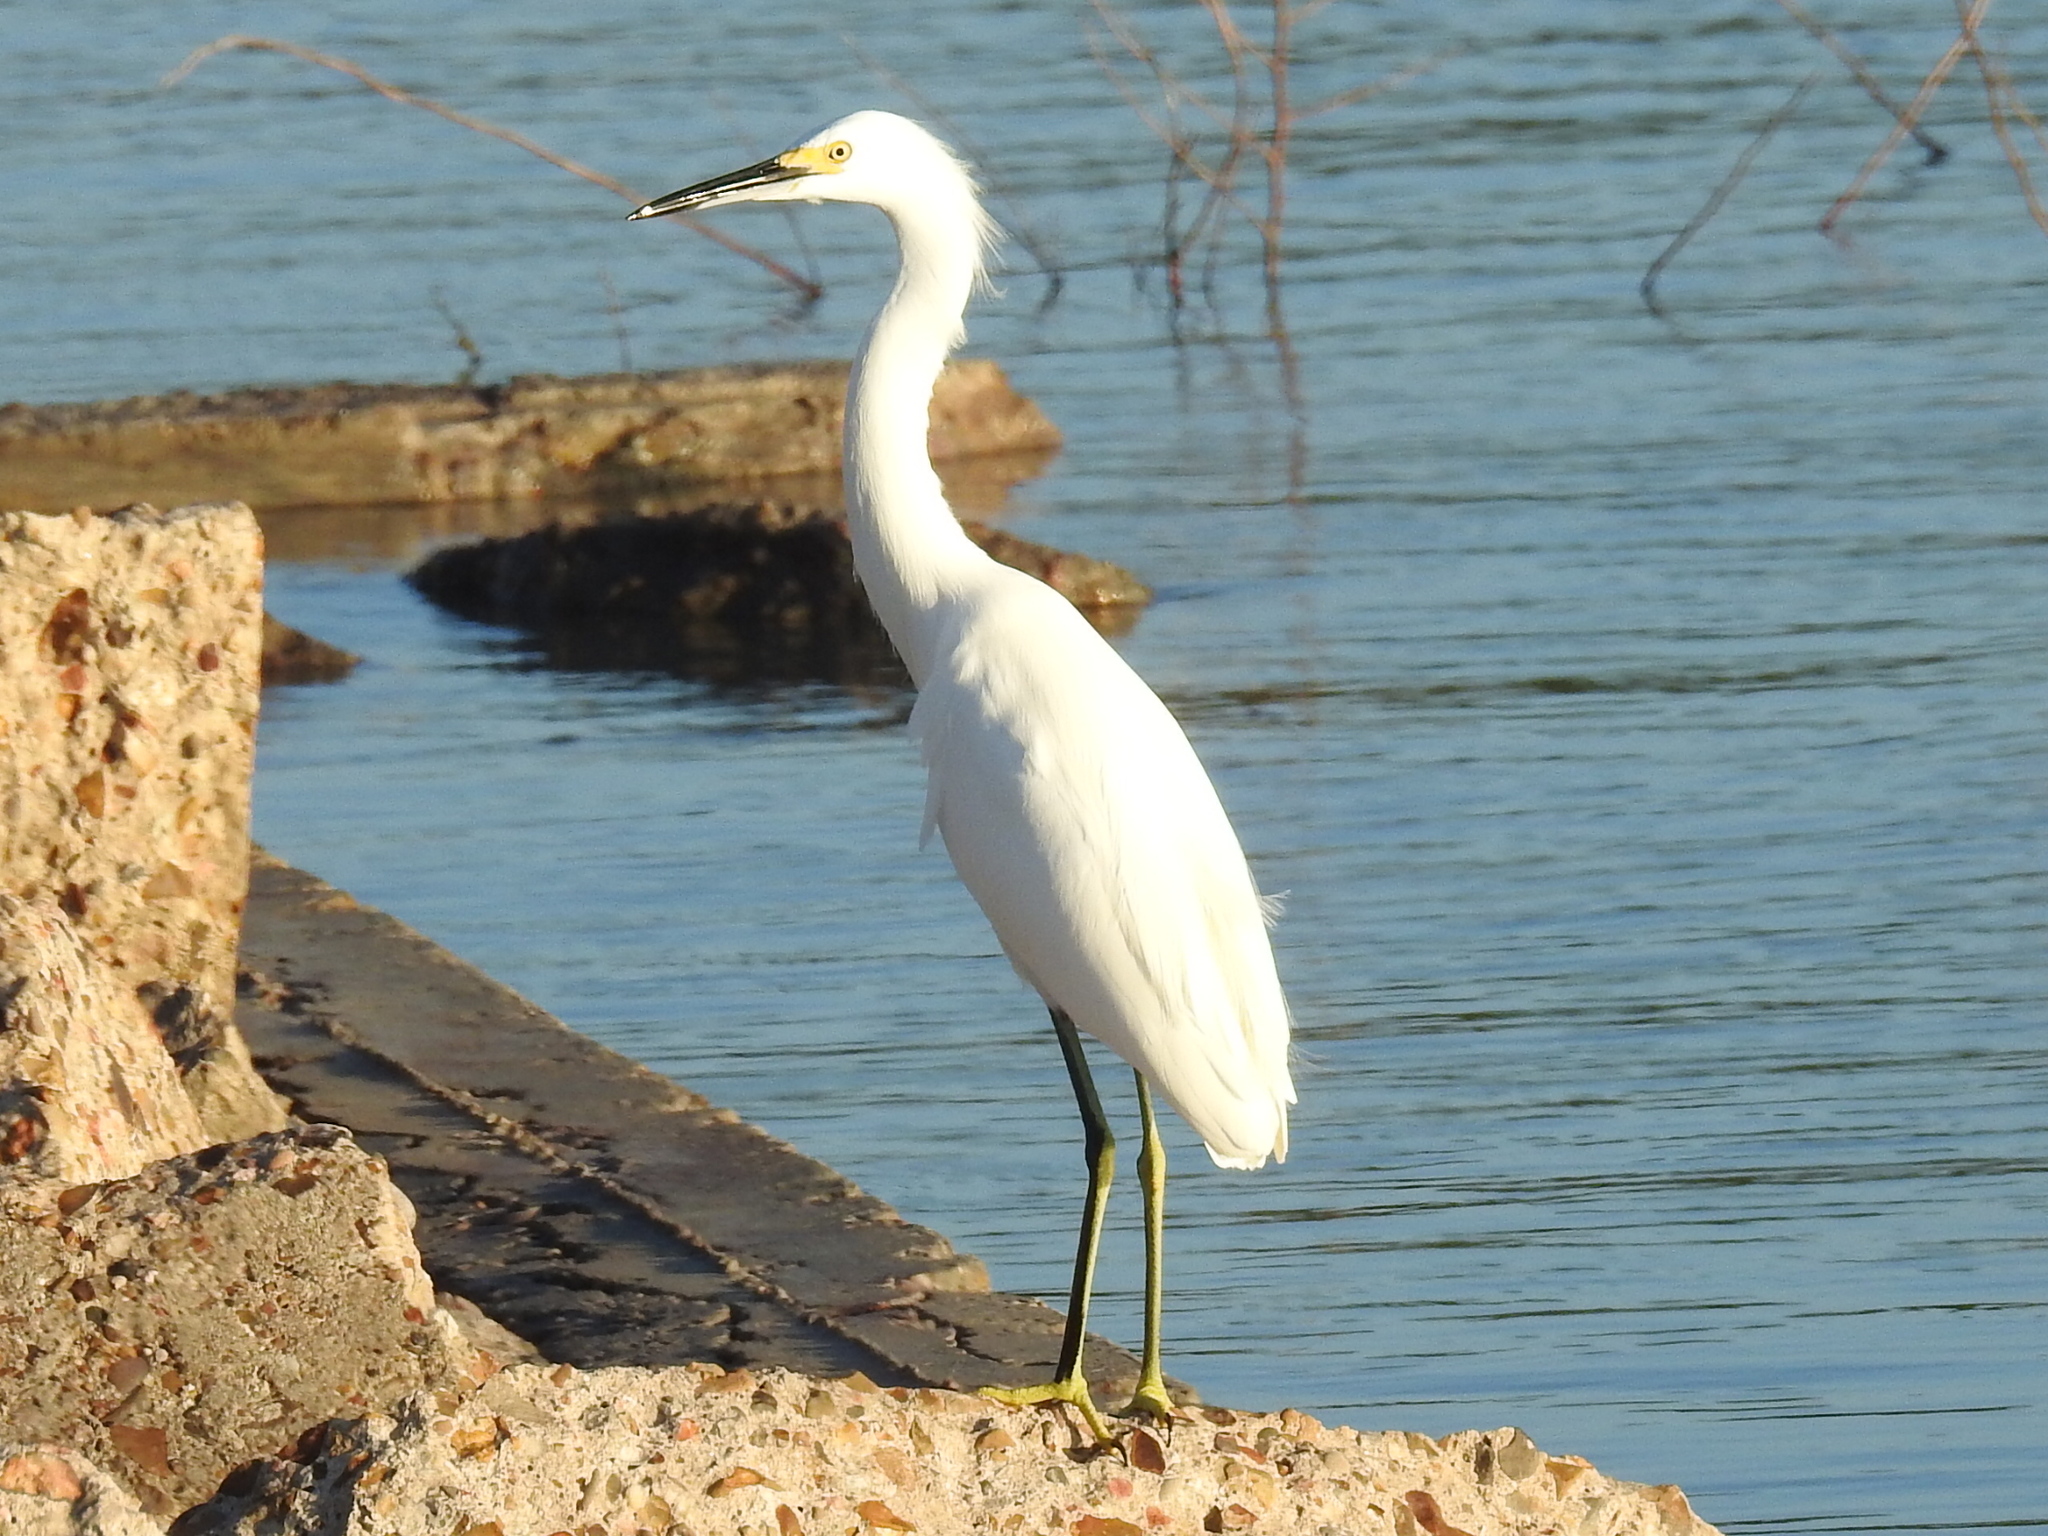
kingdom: Animalia
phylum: Chordata
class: Aves
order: Pelecaniformes
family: Ardeidae
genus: Egretta
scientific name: Egretta thula
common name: Snowy egret
